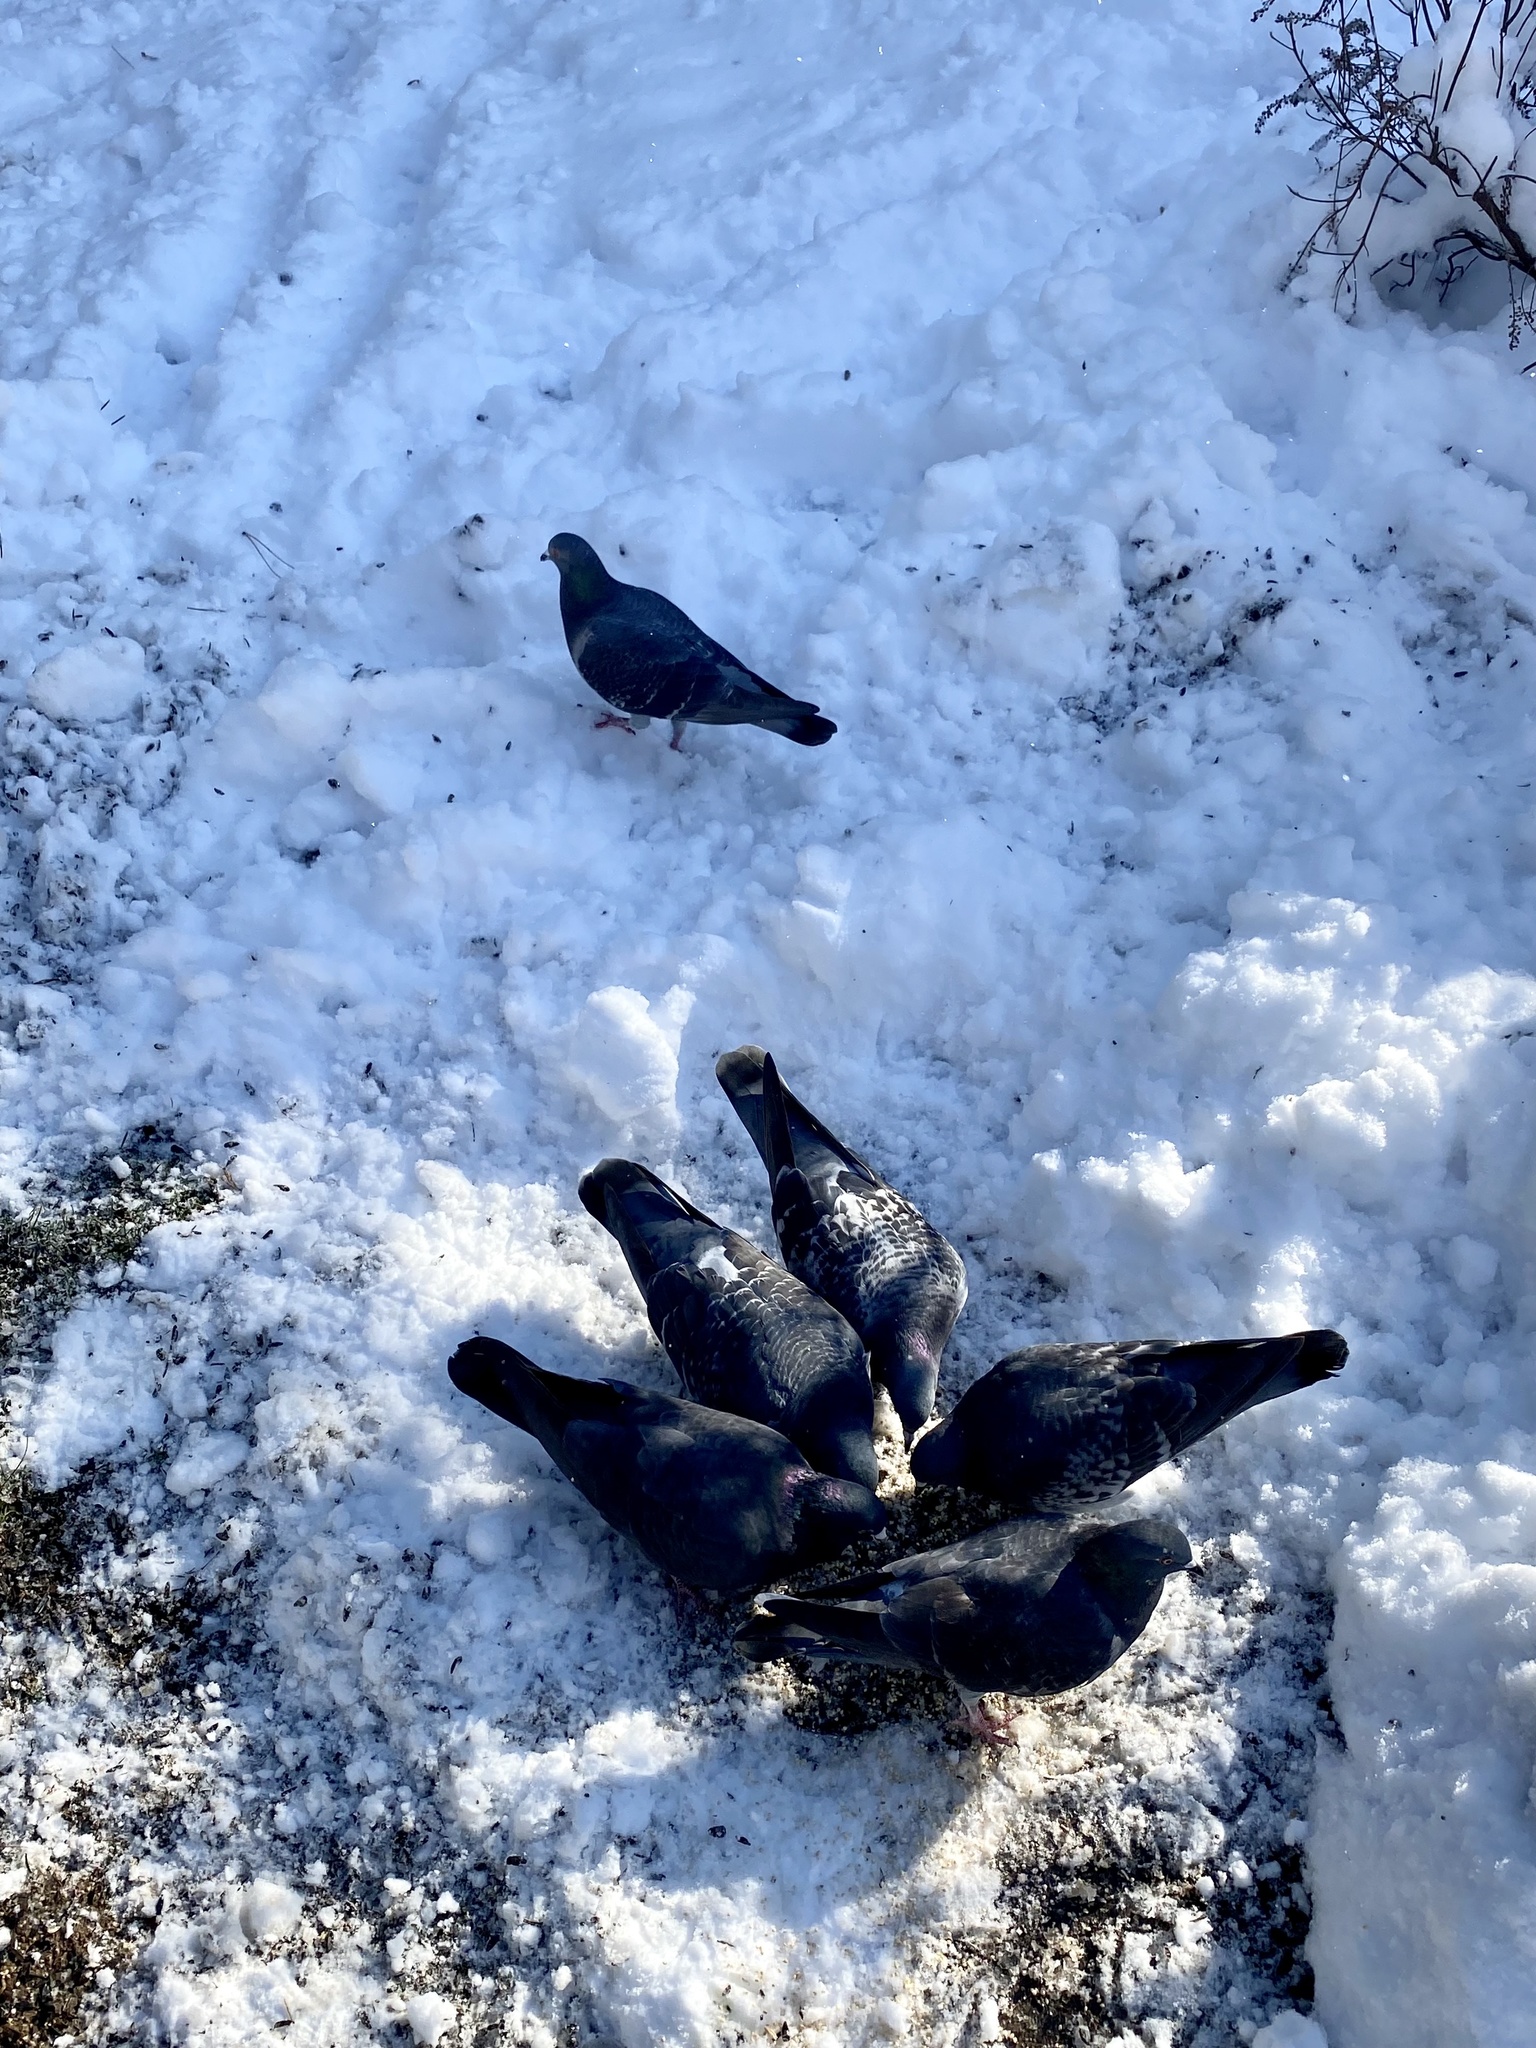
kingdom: Animalia
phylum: Chordata
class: Aves
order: Columbiformes
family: Columbidae
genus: Columba
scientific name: Columba livia
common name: Rock pigeon
